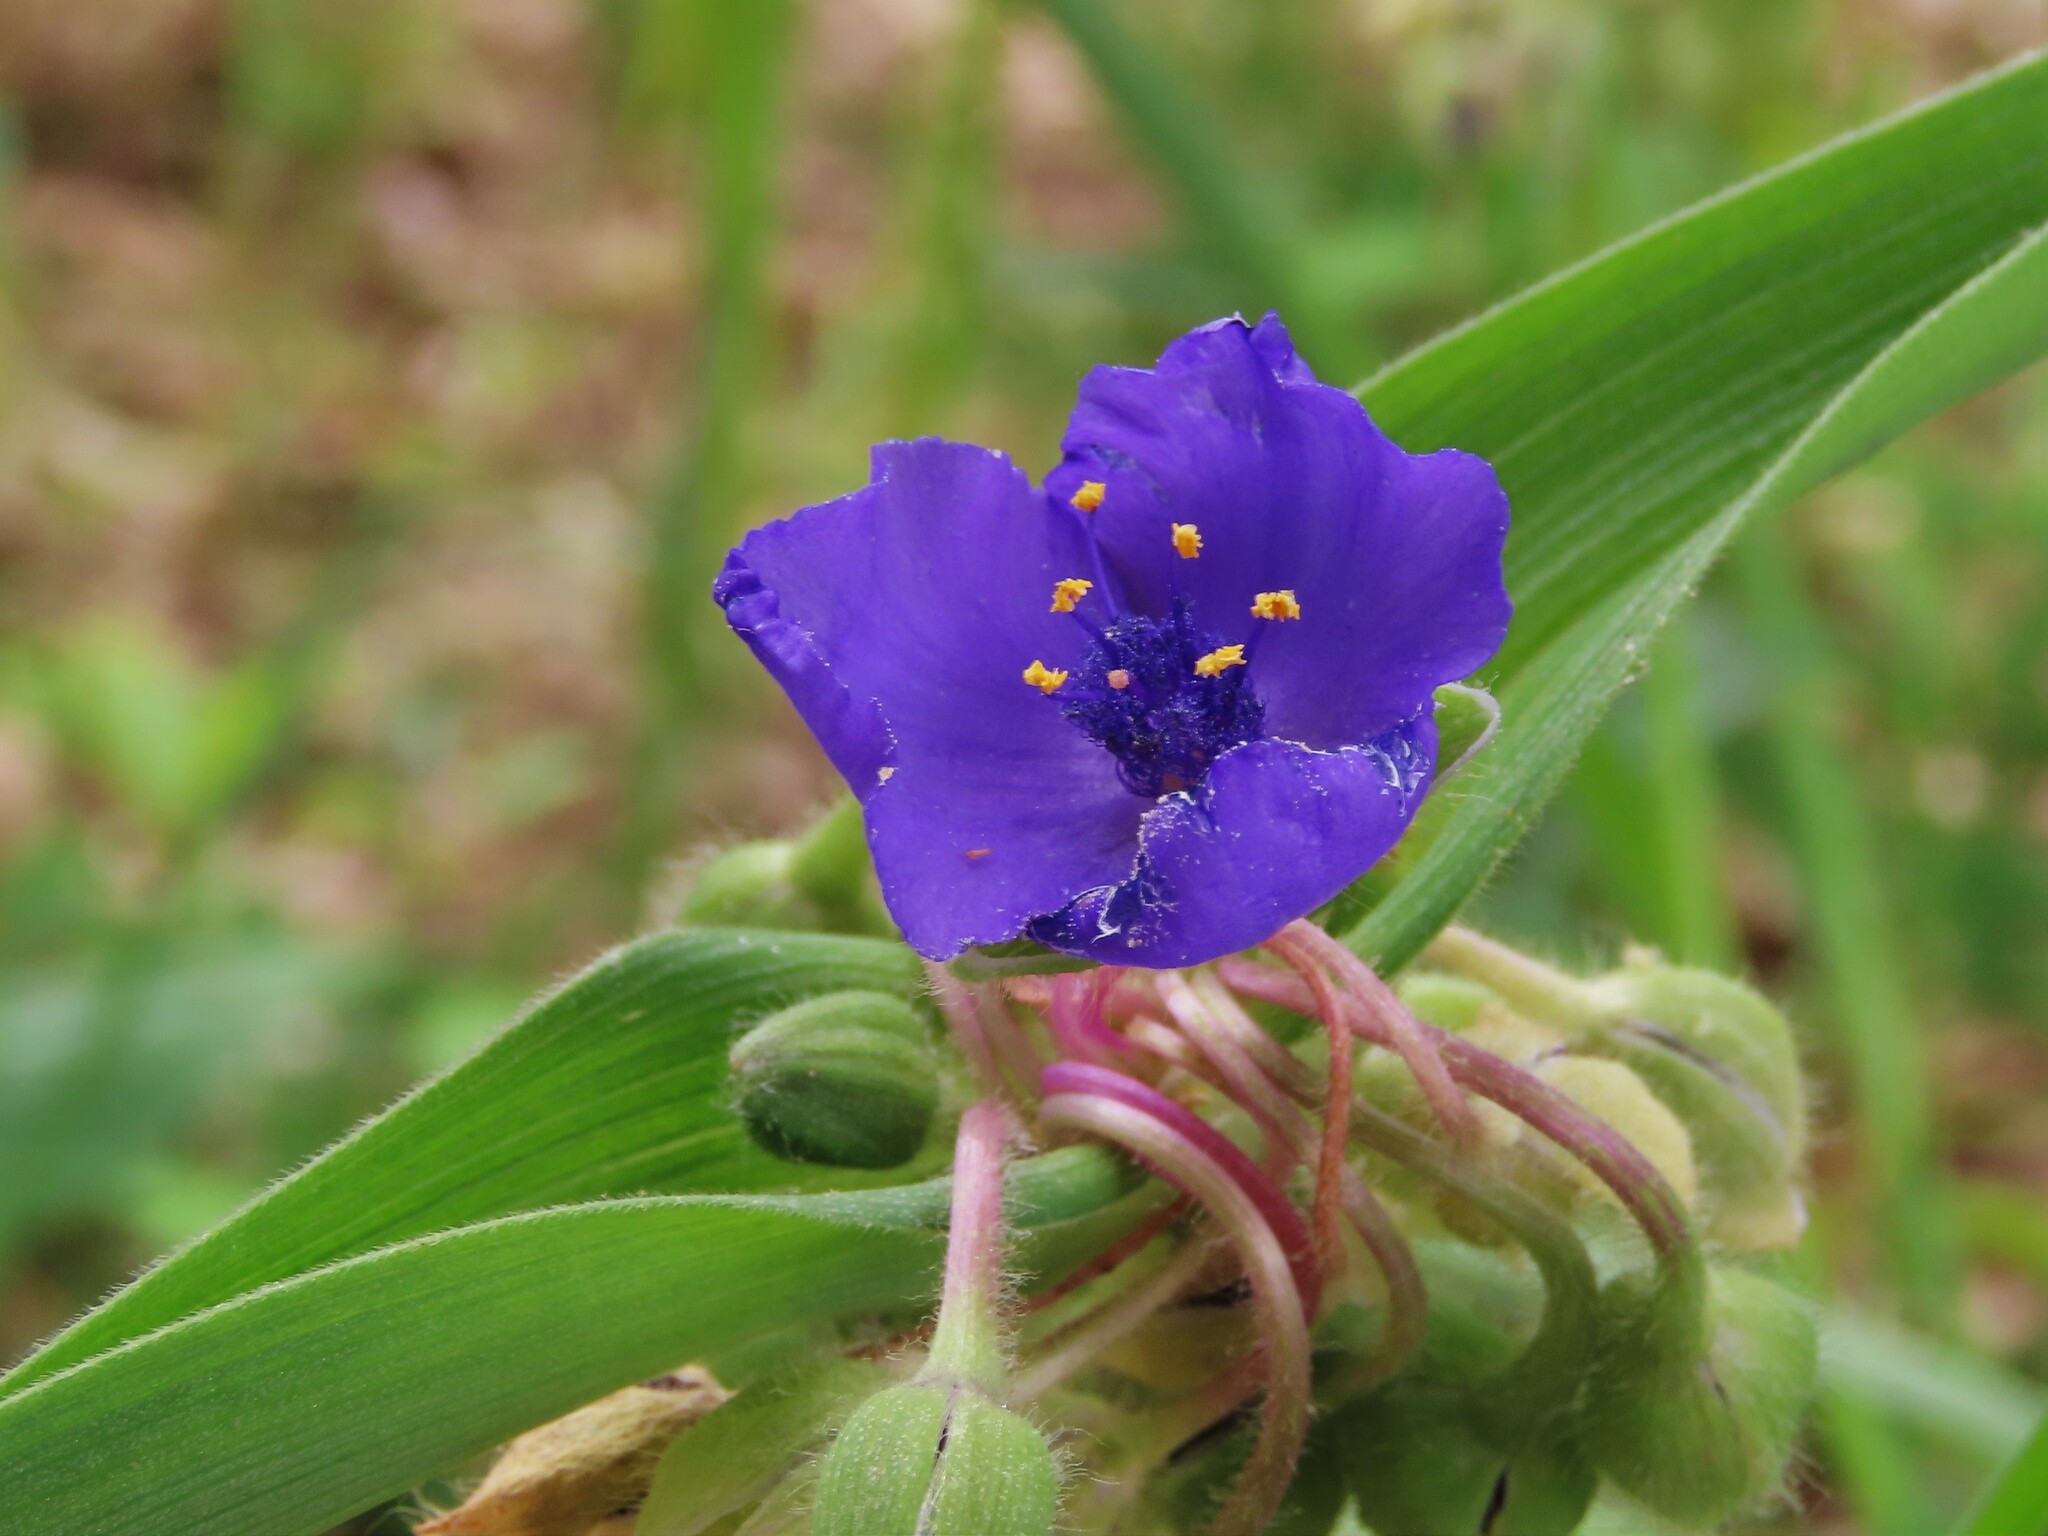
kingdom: Plantae
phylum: Tracheophyta
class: Liliopsida
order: Commelinales
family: Commelinaceae
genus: Tradescantia
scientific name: Tradescantia virginiana
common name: Spiderwort
